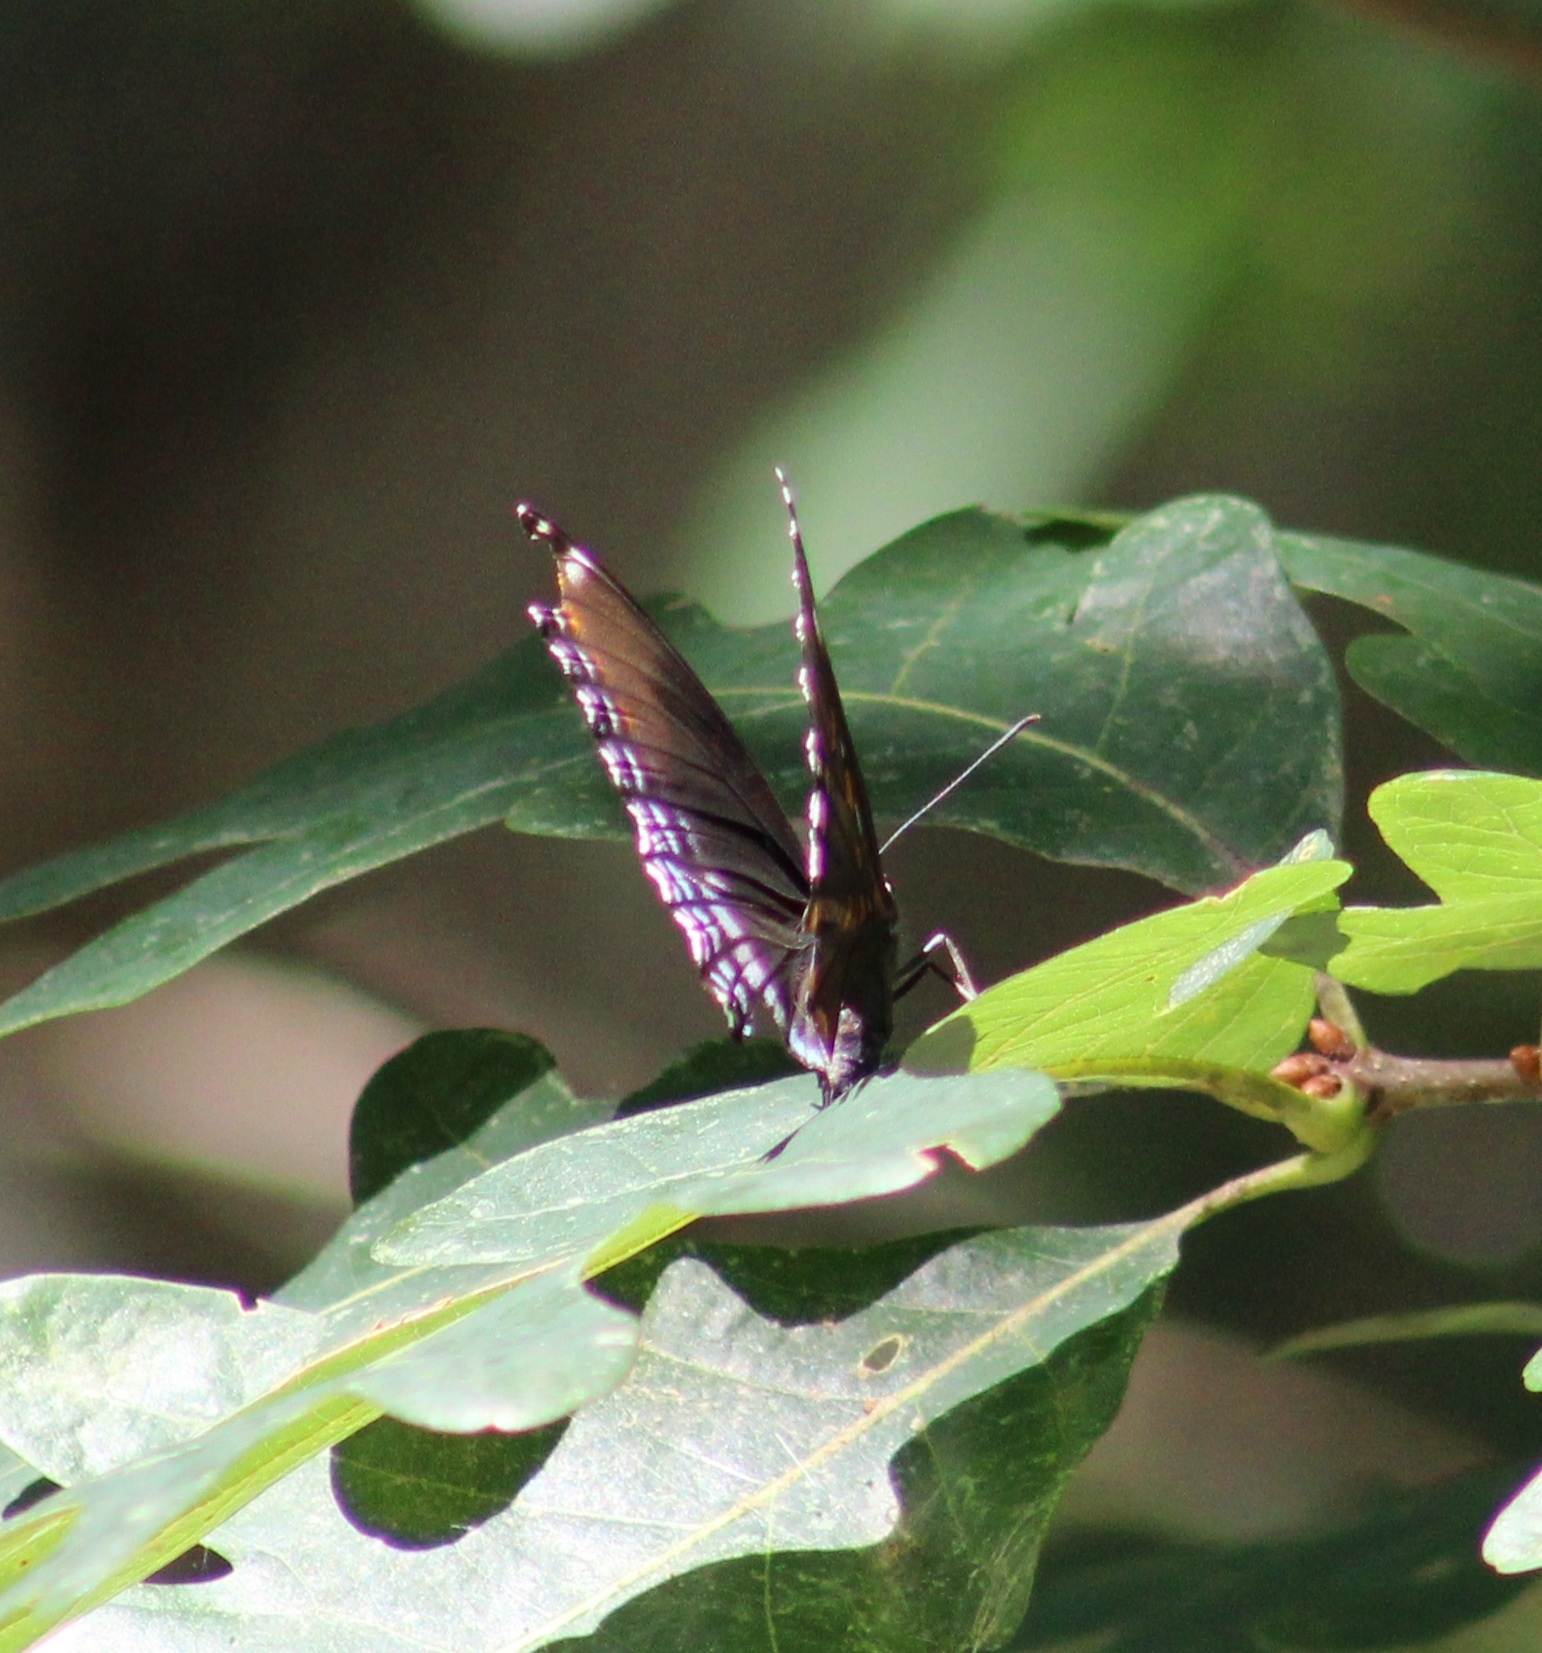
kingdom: Animalia
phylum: Arthropoda
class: Insecta
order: Lepidoptera
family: Nymphalidae
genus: Limenitis
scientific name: Limenitis astyanax
